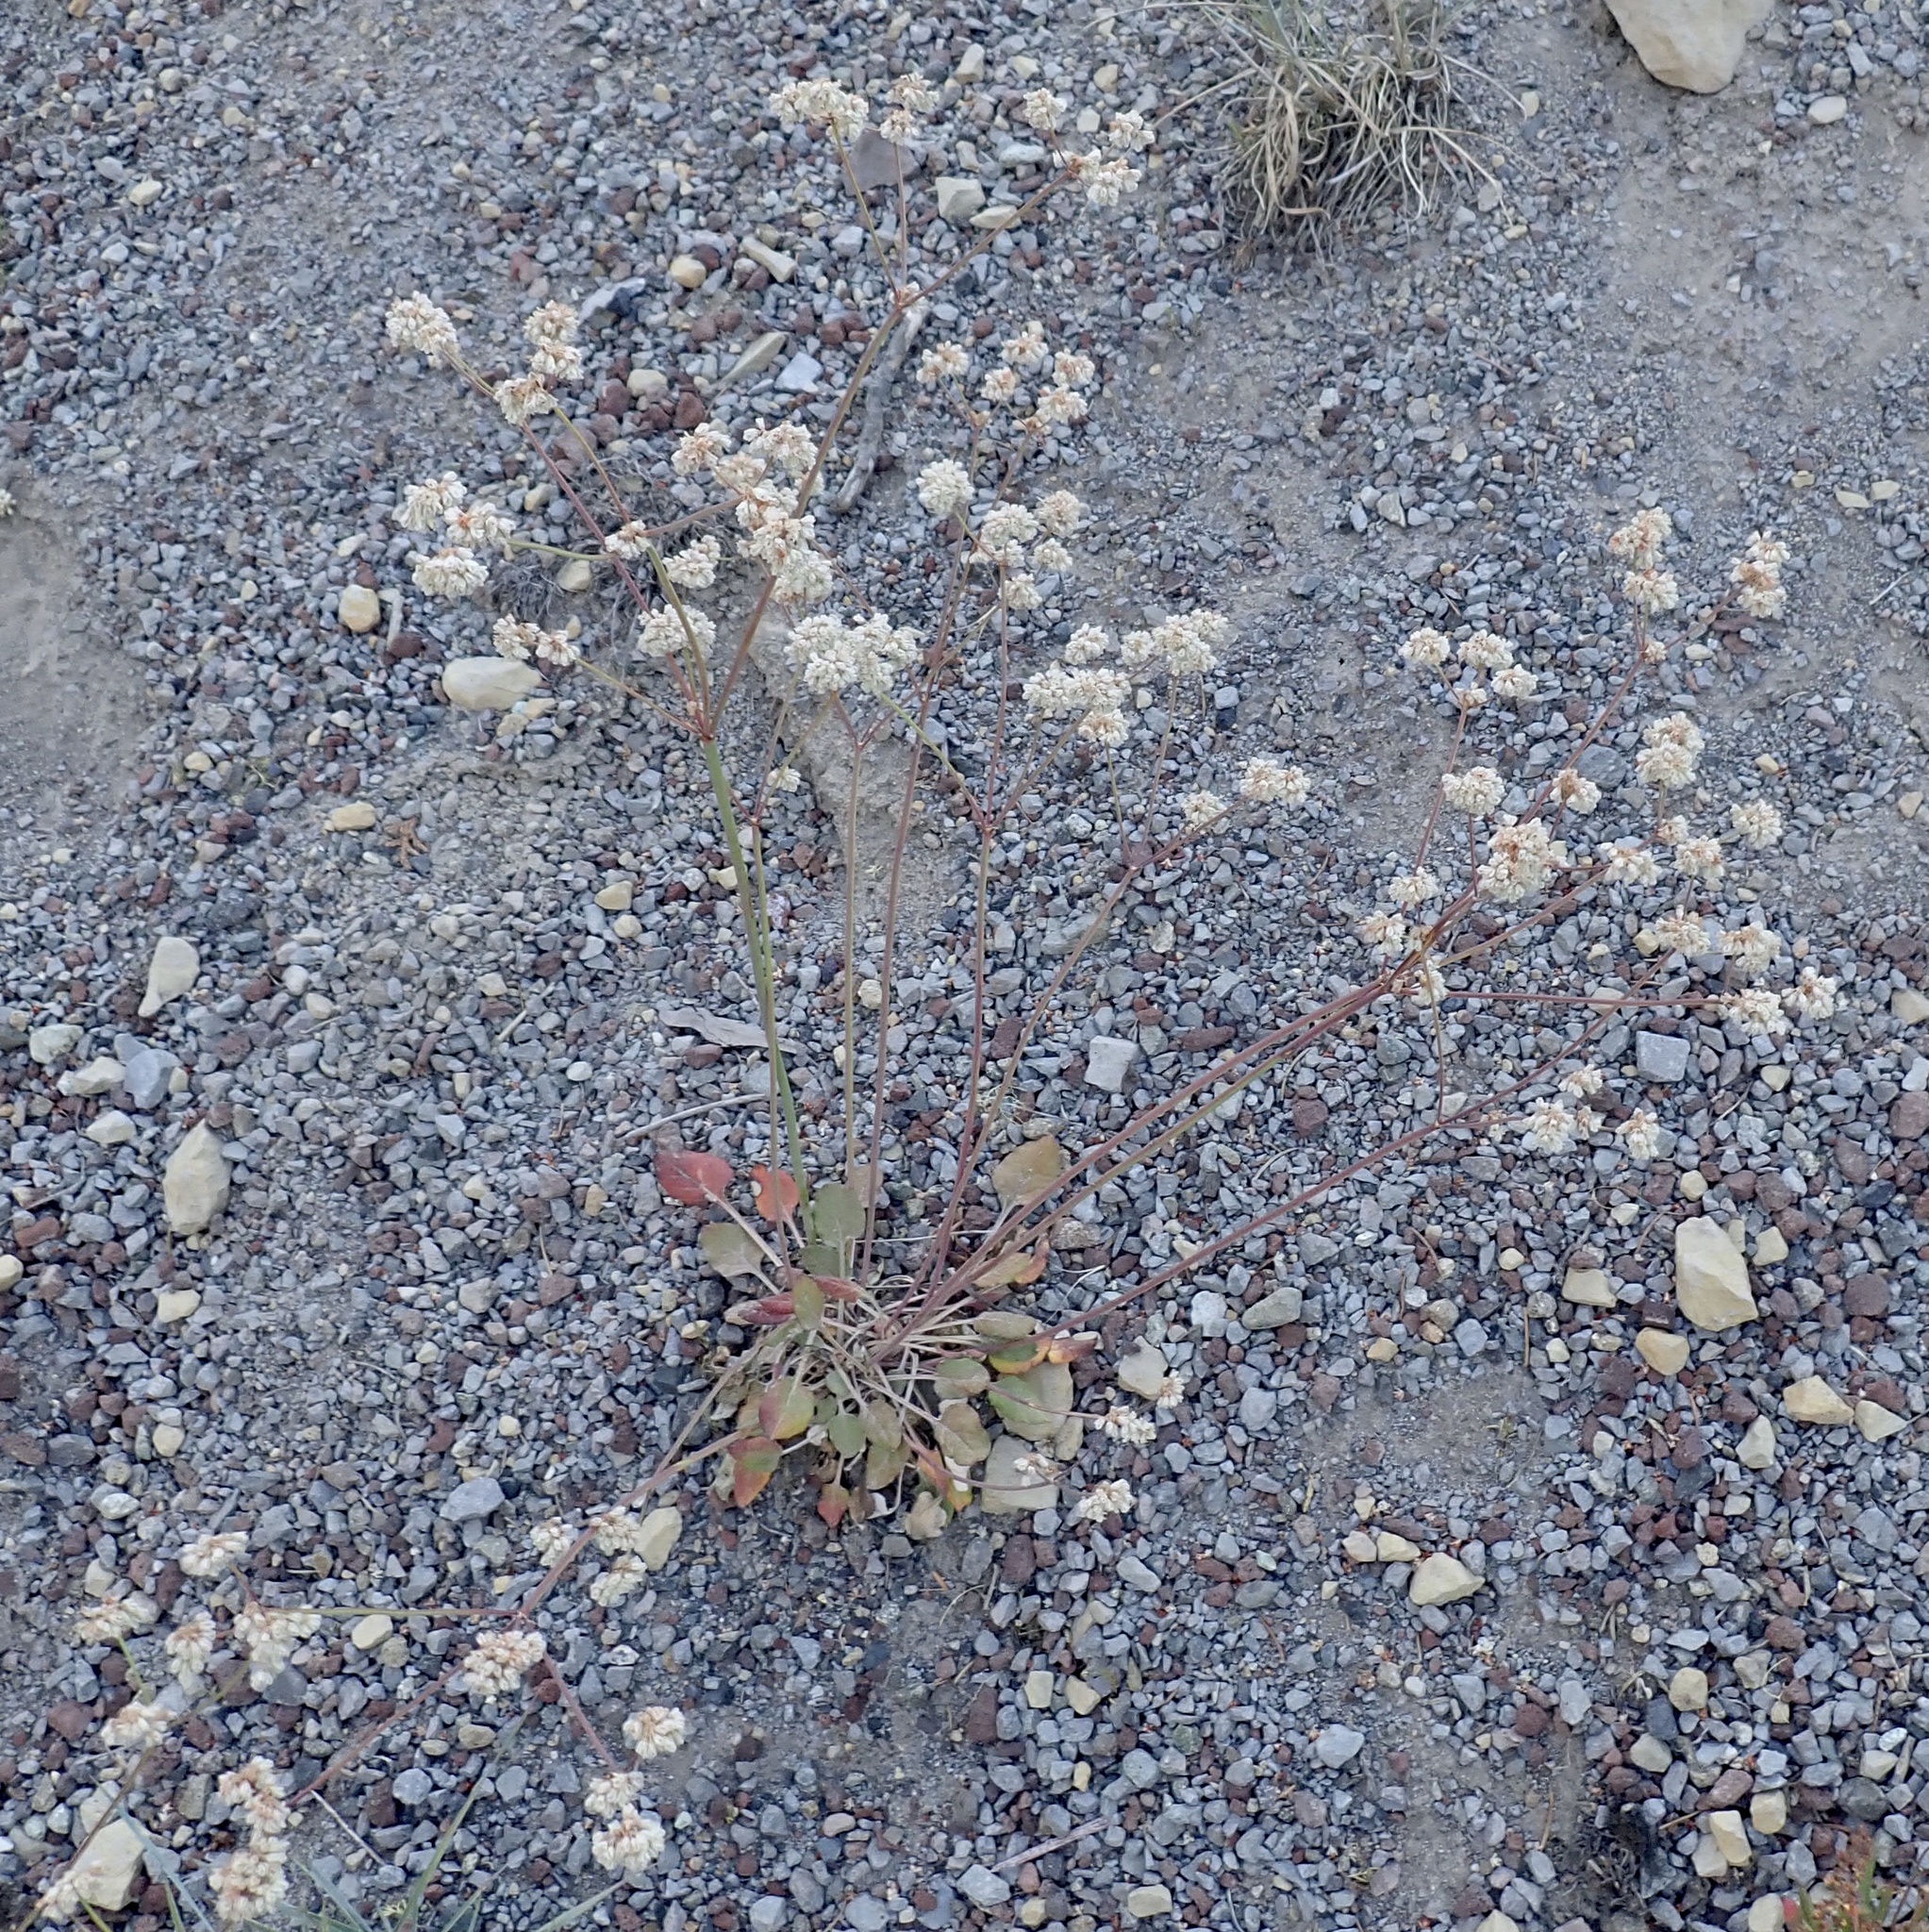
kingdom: Plantae
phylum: Tracheophyta
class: Magnoliopsida
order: Caryophyllales
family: Polygonaceae
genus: Eriogonum
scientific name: Eriogonum nudum
